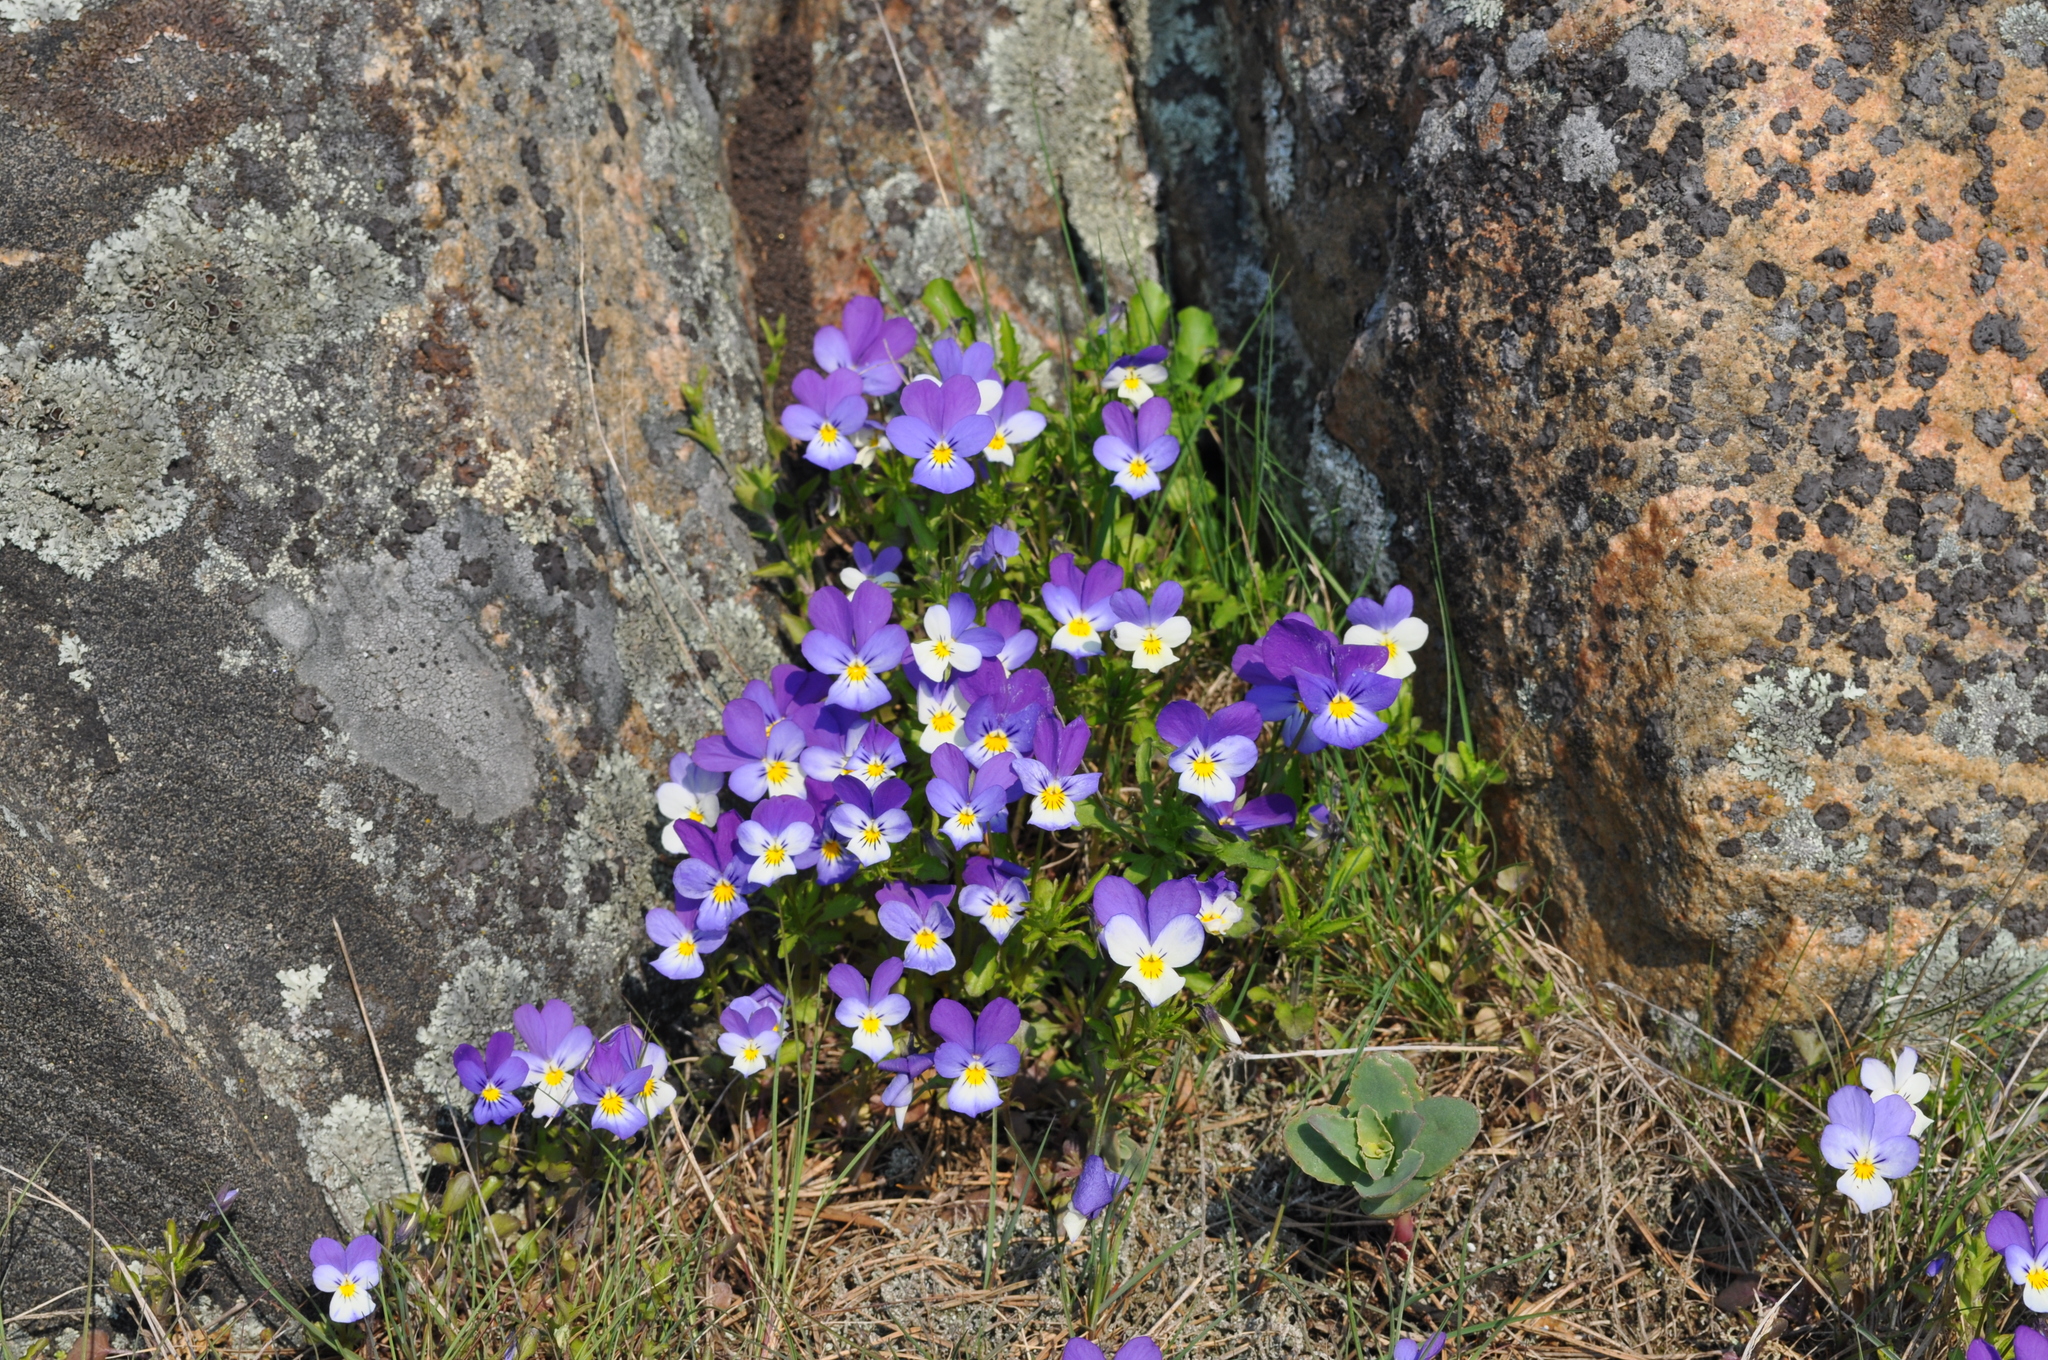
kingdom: Plantae
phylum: Tracheophyta
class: Magnoliopsida
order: Malpighiales
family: Violaceae
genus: Viola
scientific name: Viola tricolor
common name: Pansy
